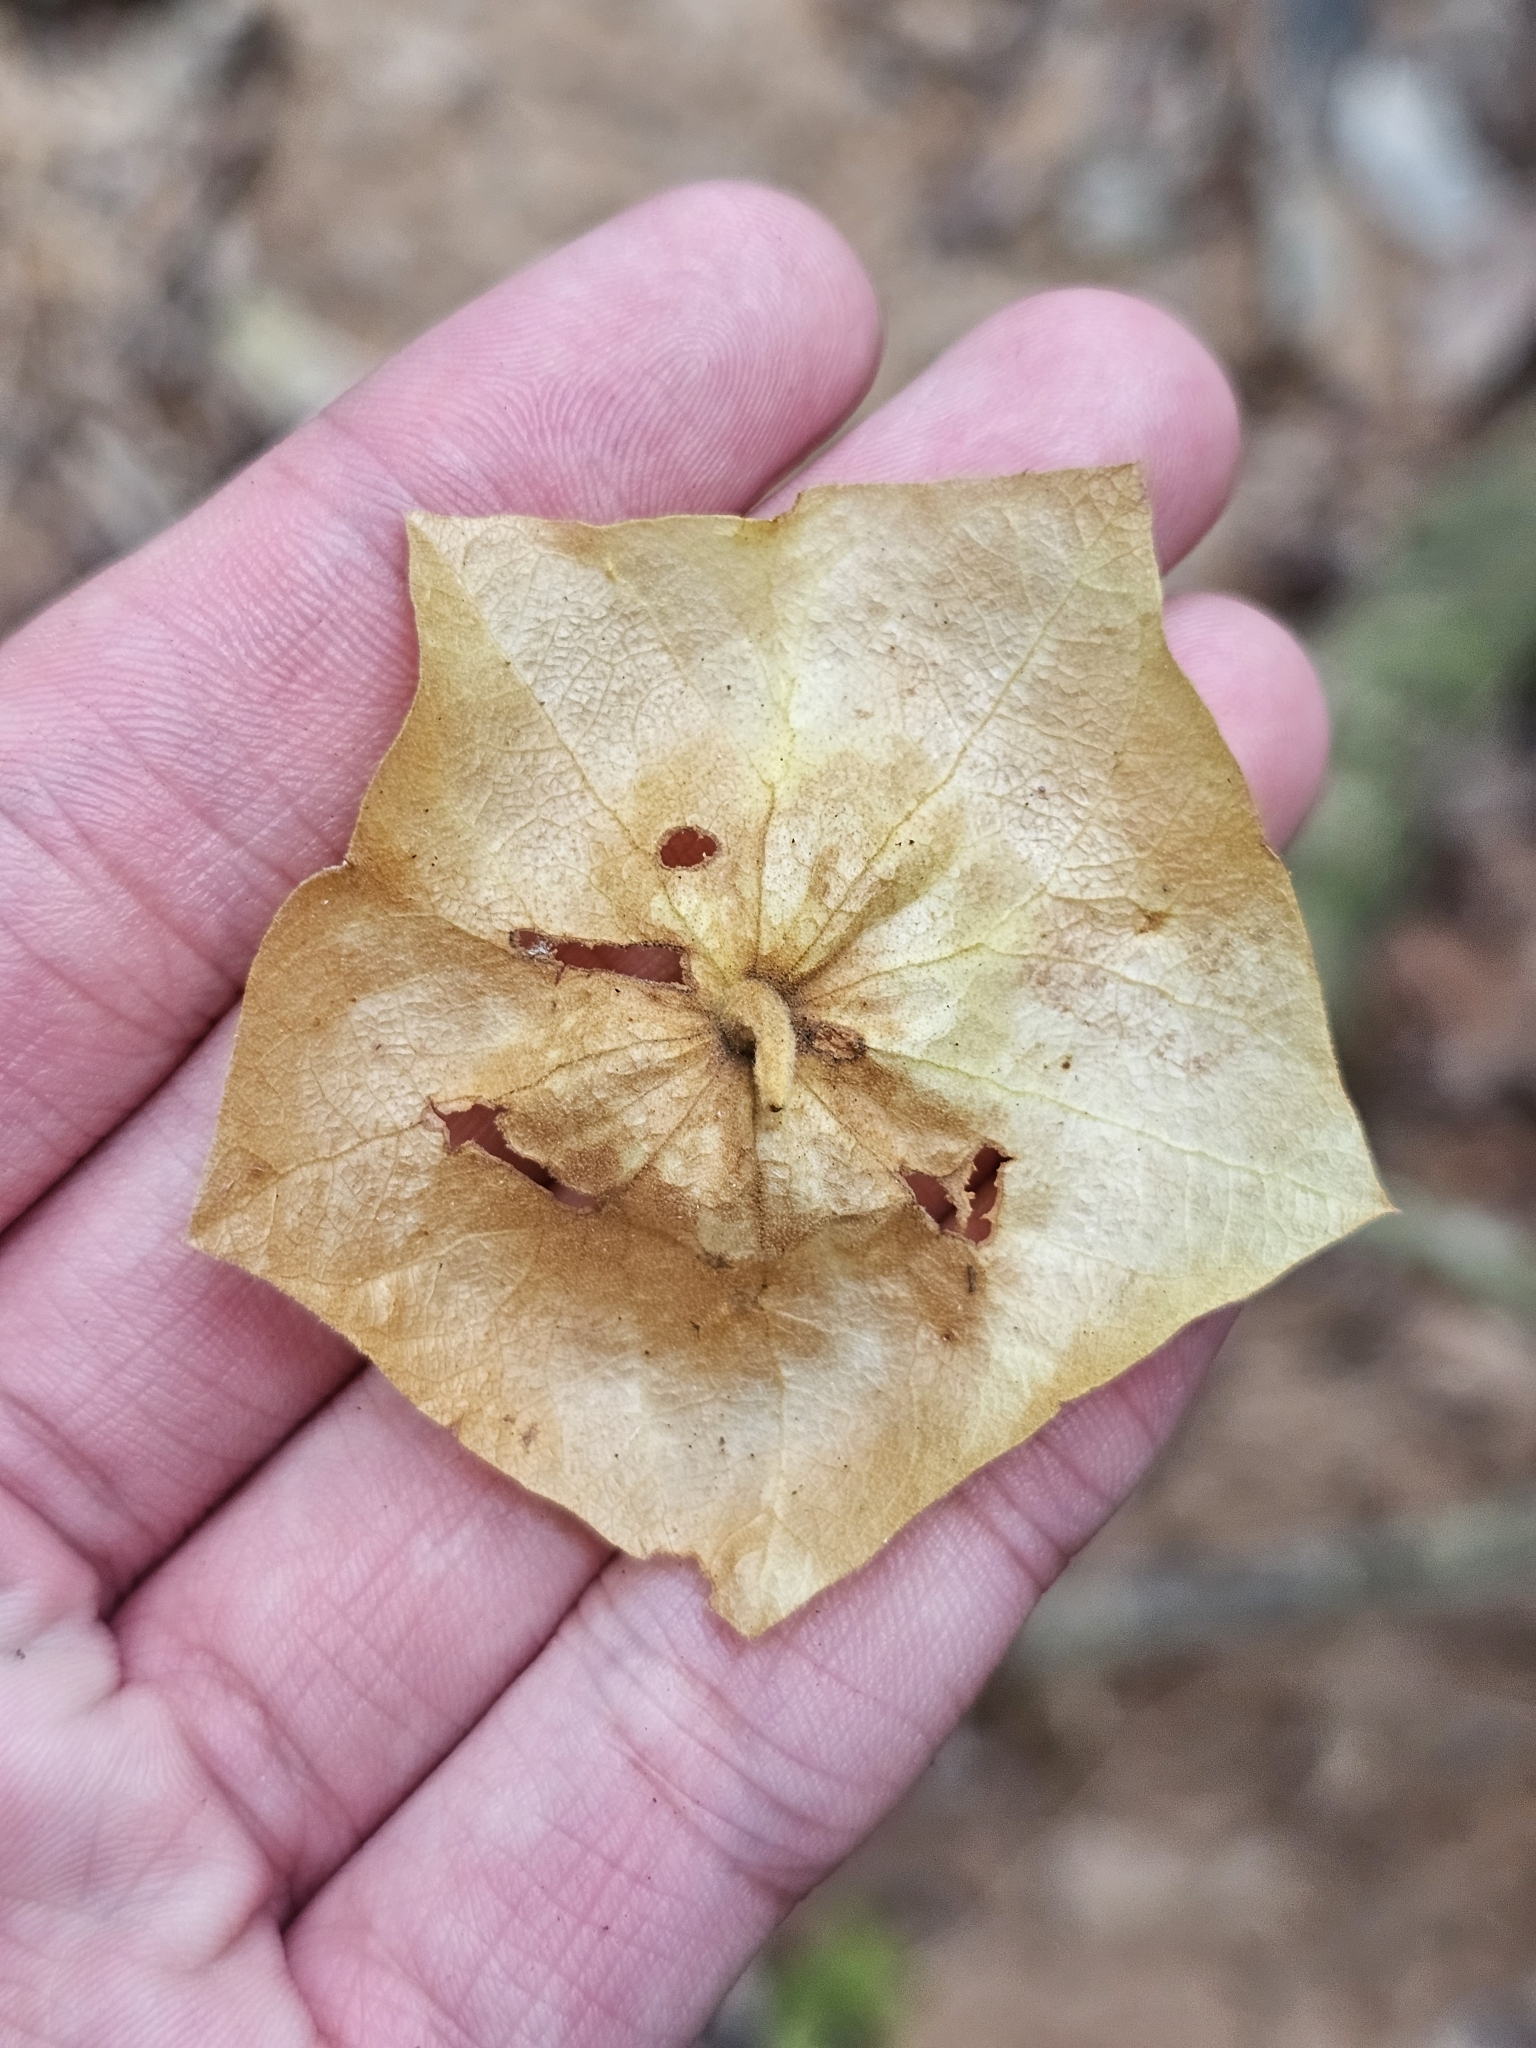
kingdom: Plantae
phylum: Tracheophyta
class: Magnoliopsida
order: Malvales
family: Malvaceae
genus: Schoutenia
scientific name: Schoutenia accrescens
